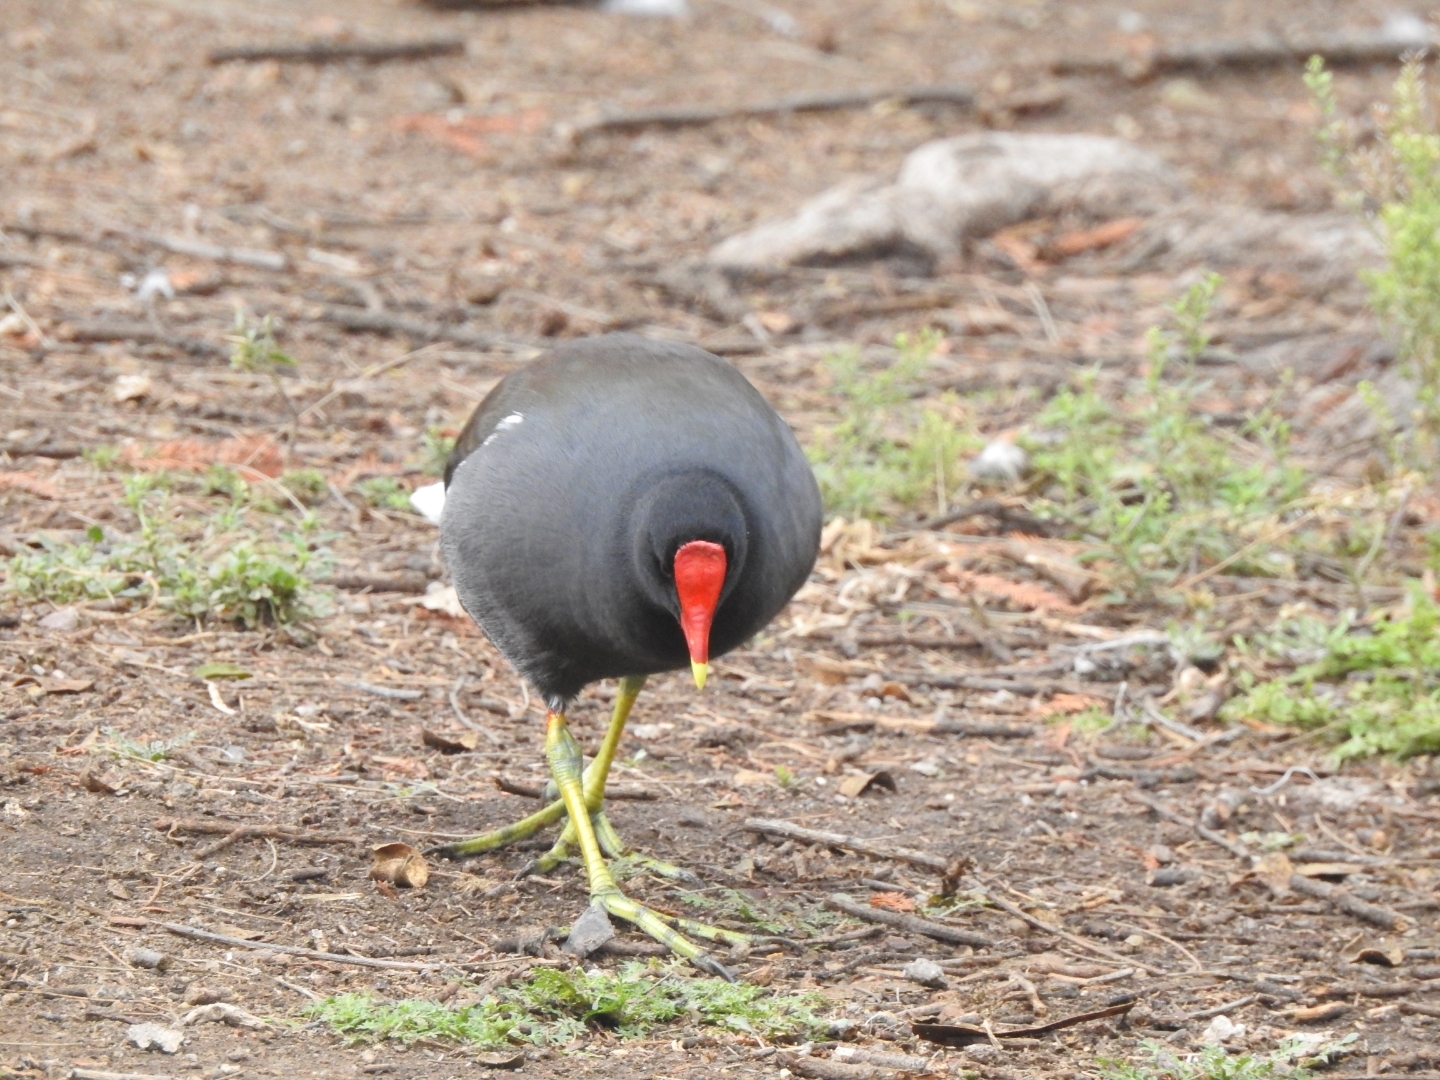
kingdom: Animalia
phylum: Chordata
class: Aves
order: Gruiformes
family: Rallidae
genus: Gallinula
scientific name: Gallinula chloropus
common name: Common moorhen
